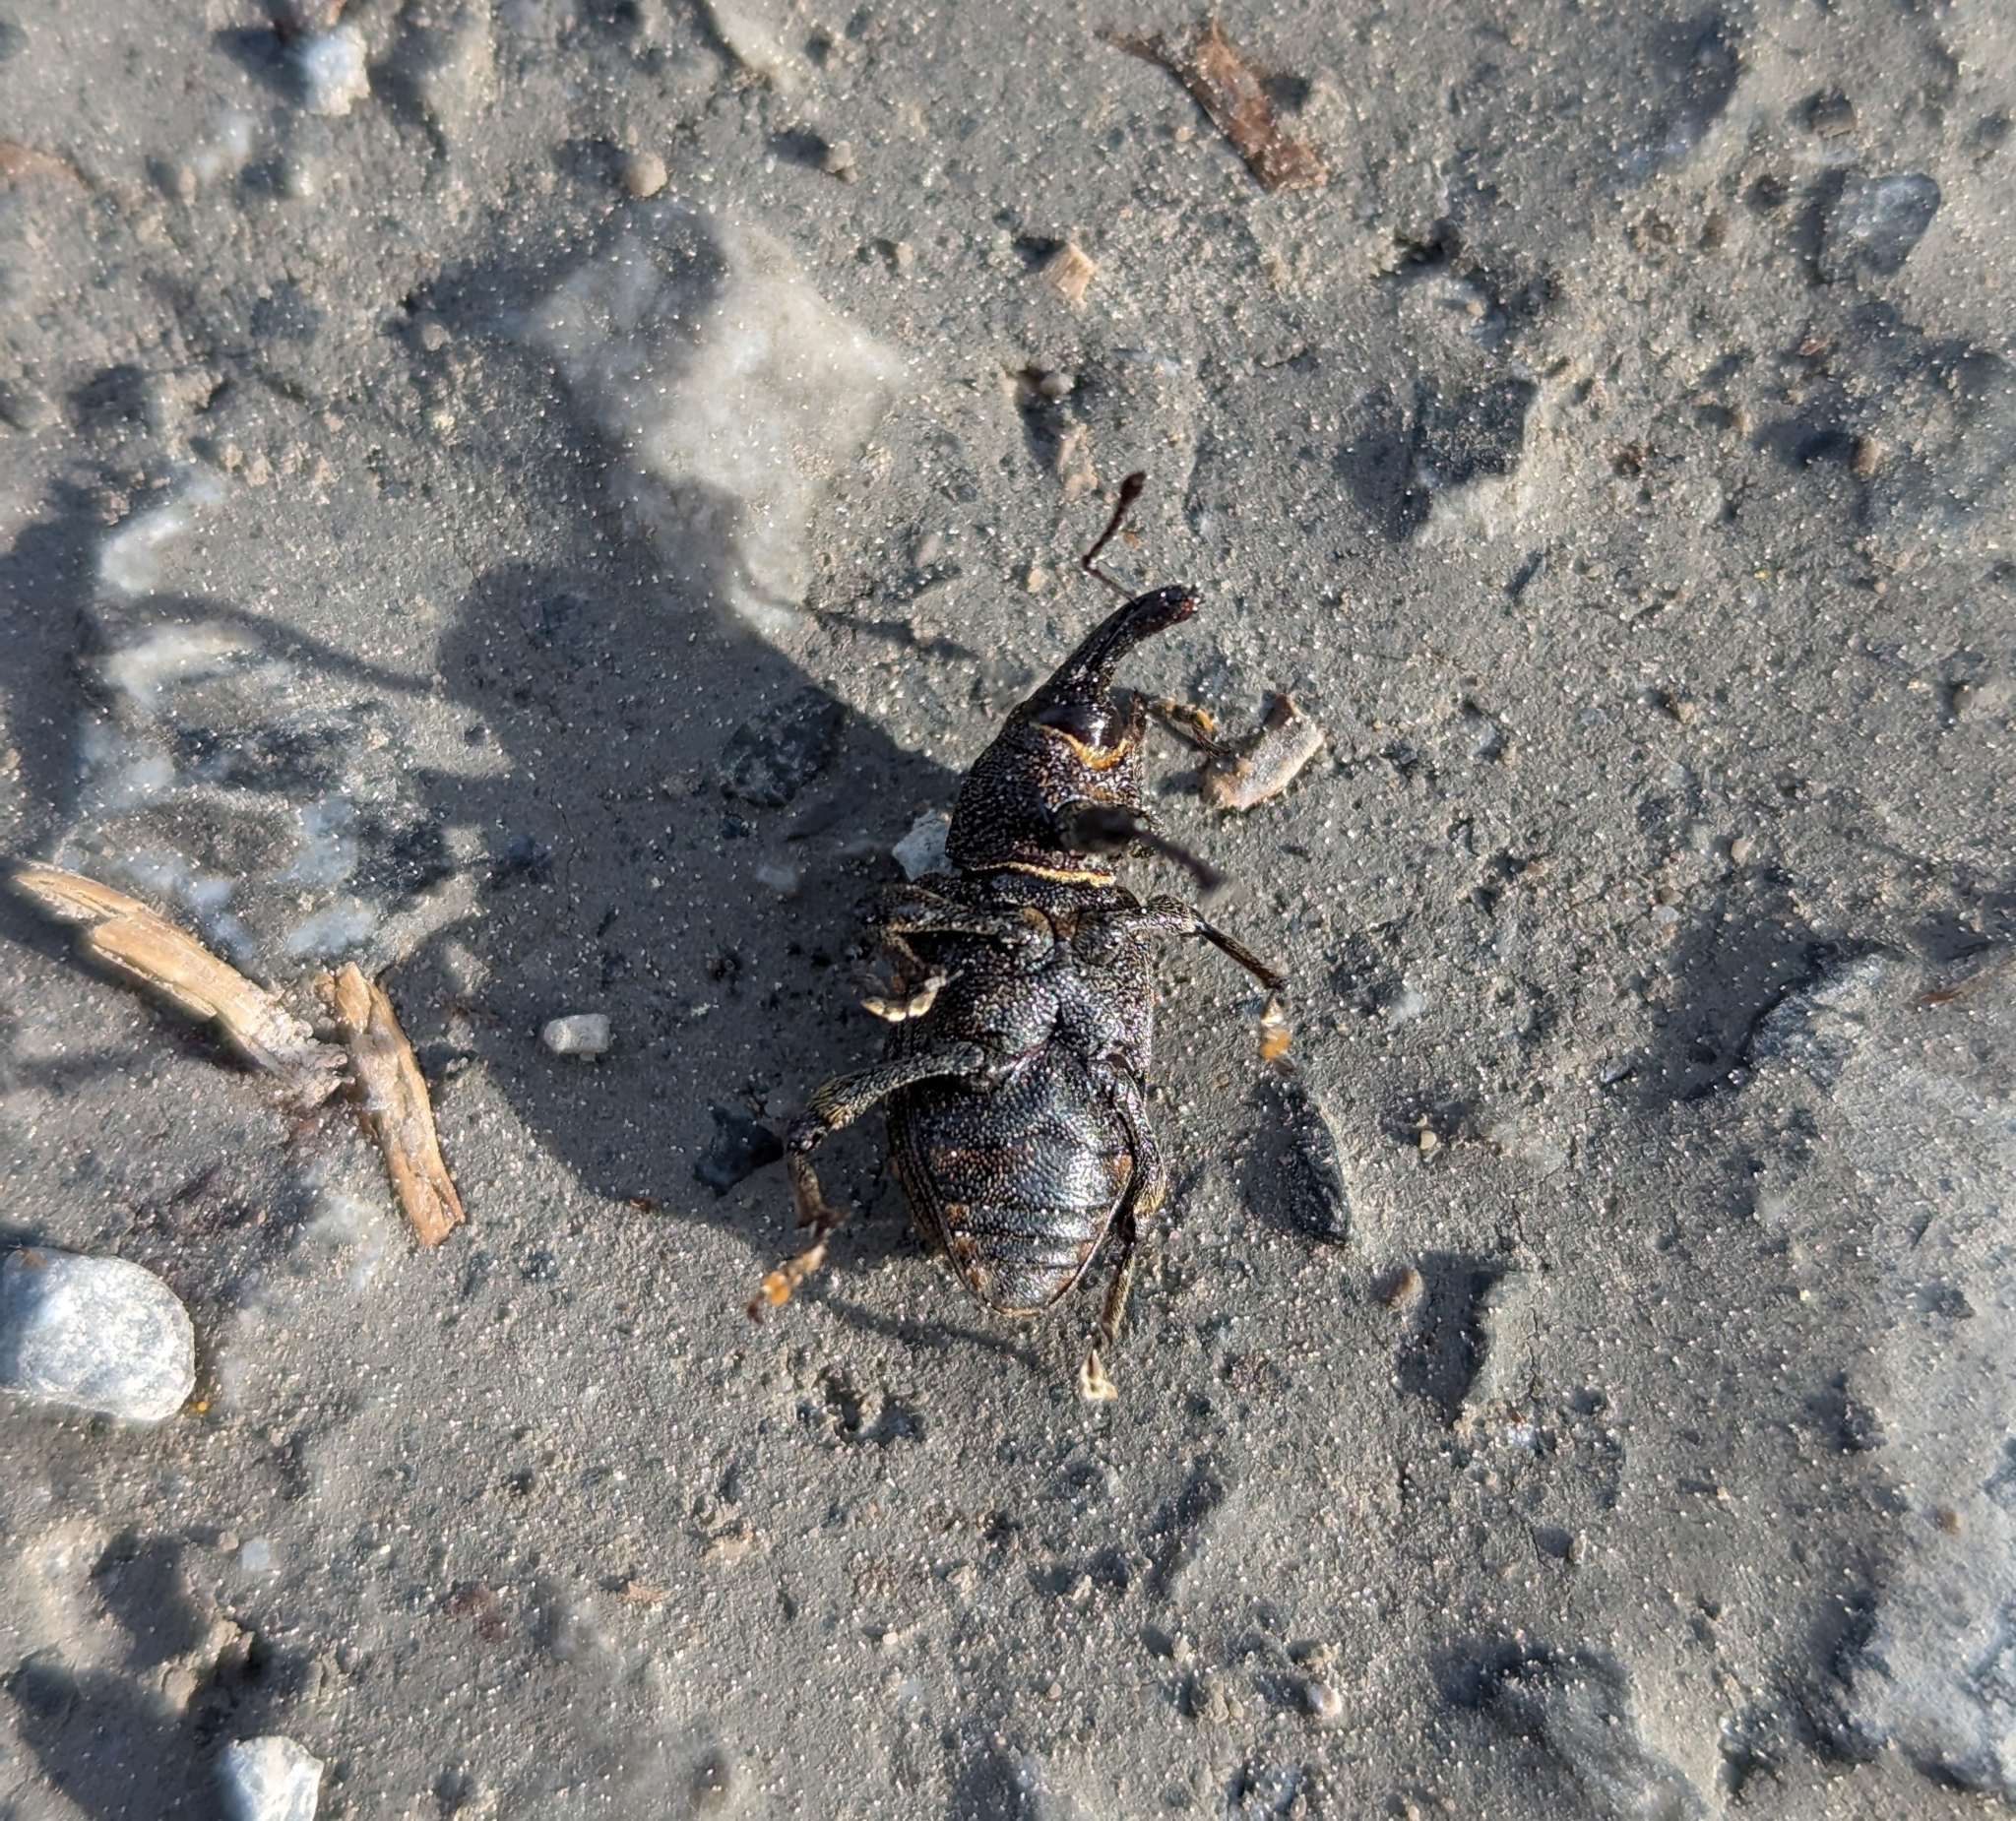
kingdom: Animalia
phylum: Arthropoda
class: Insecta
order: Coleoptera
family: Curculionidae
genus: Hylobius
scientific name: Hylobius abietis
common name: Large pine weevil
